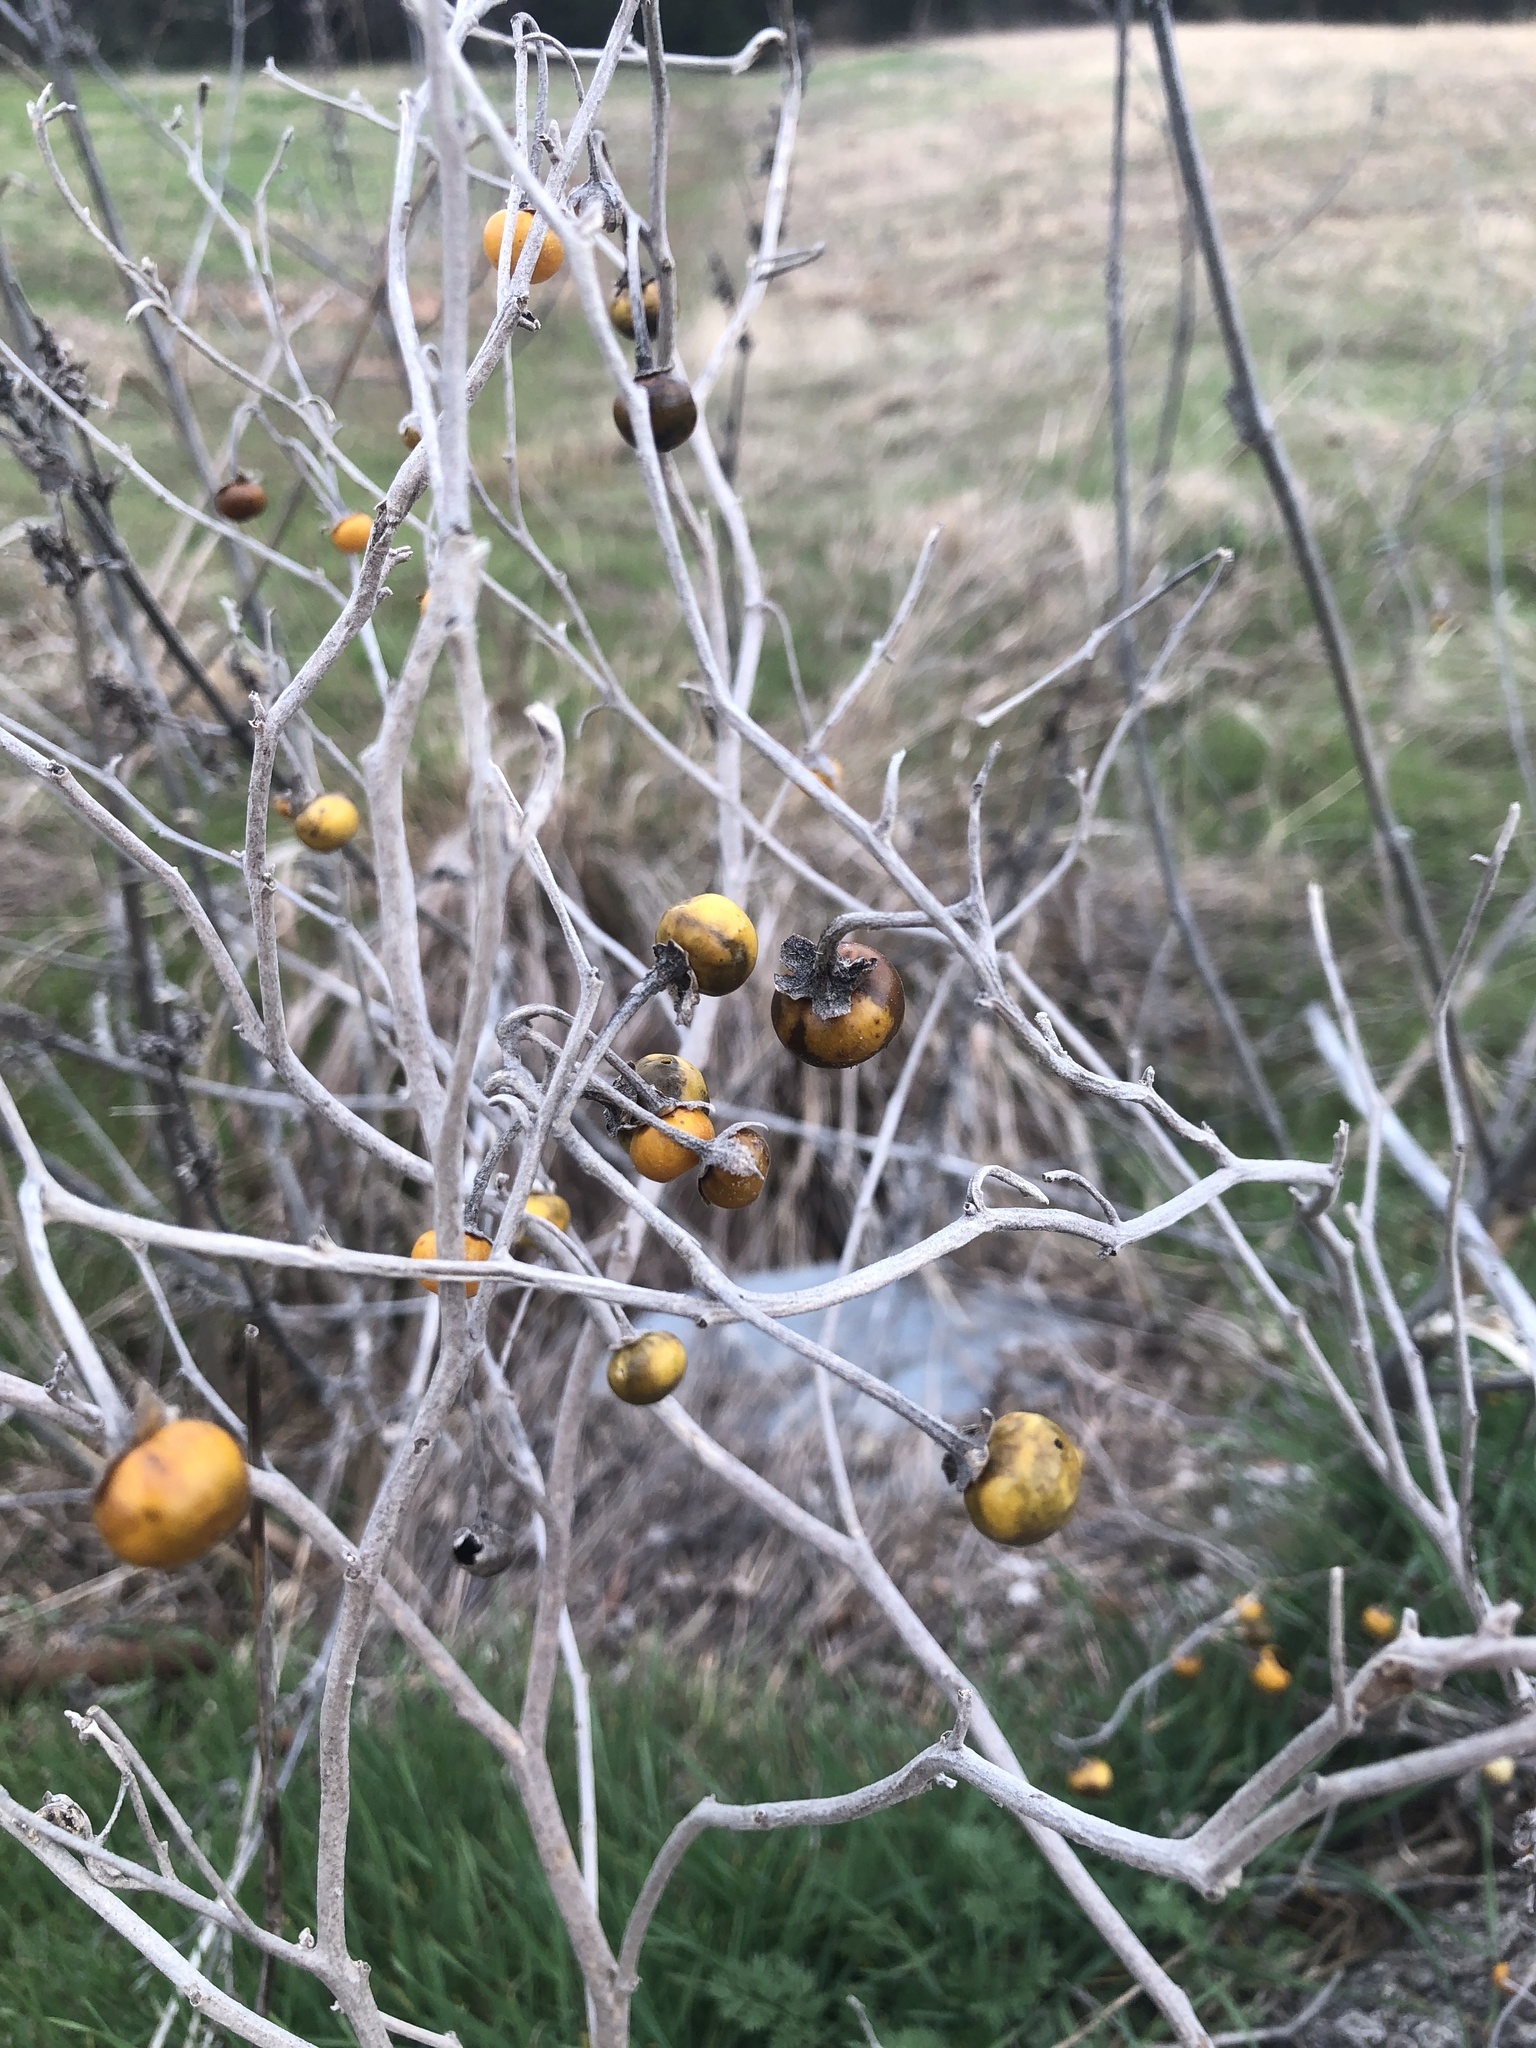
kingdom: Plantae
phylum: Tracheophyta
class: Magnoliopsida
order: Solanales
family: Solanaceae
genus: Solanum
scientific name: Solanum elaeagnifolium
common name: Silverleaf nightshade
